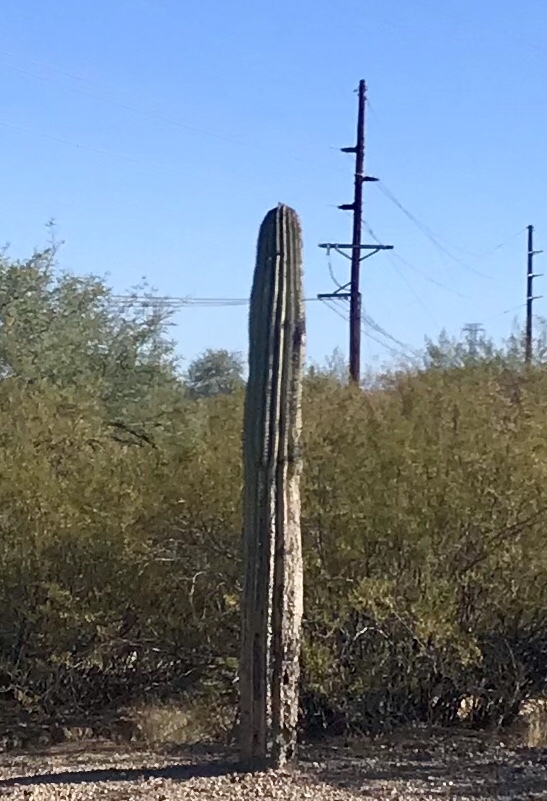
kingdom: Plantae
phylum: Tracheophyta
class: Magnoliopsida
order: Caryophyllales
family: Cactaceae
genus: Carnegiea
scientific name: Carnegiea gigantea
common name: Saguaro
